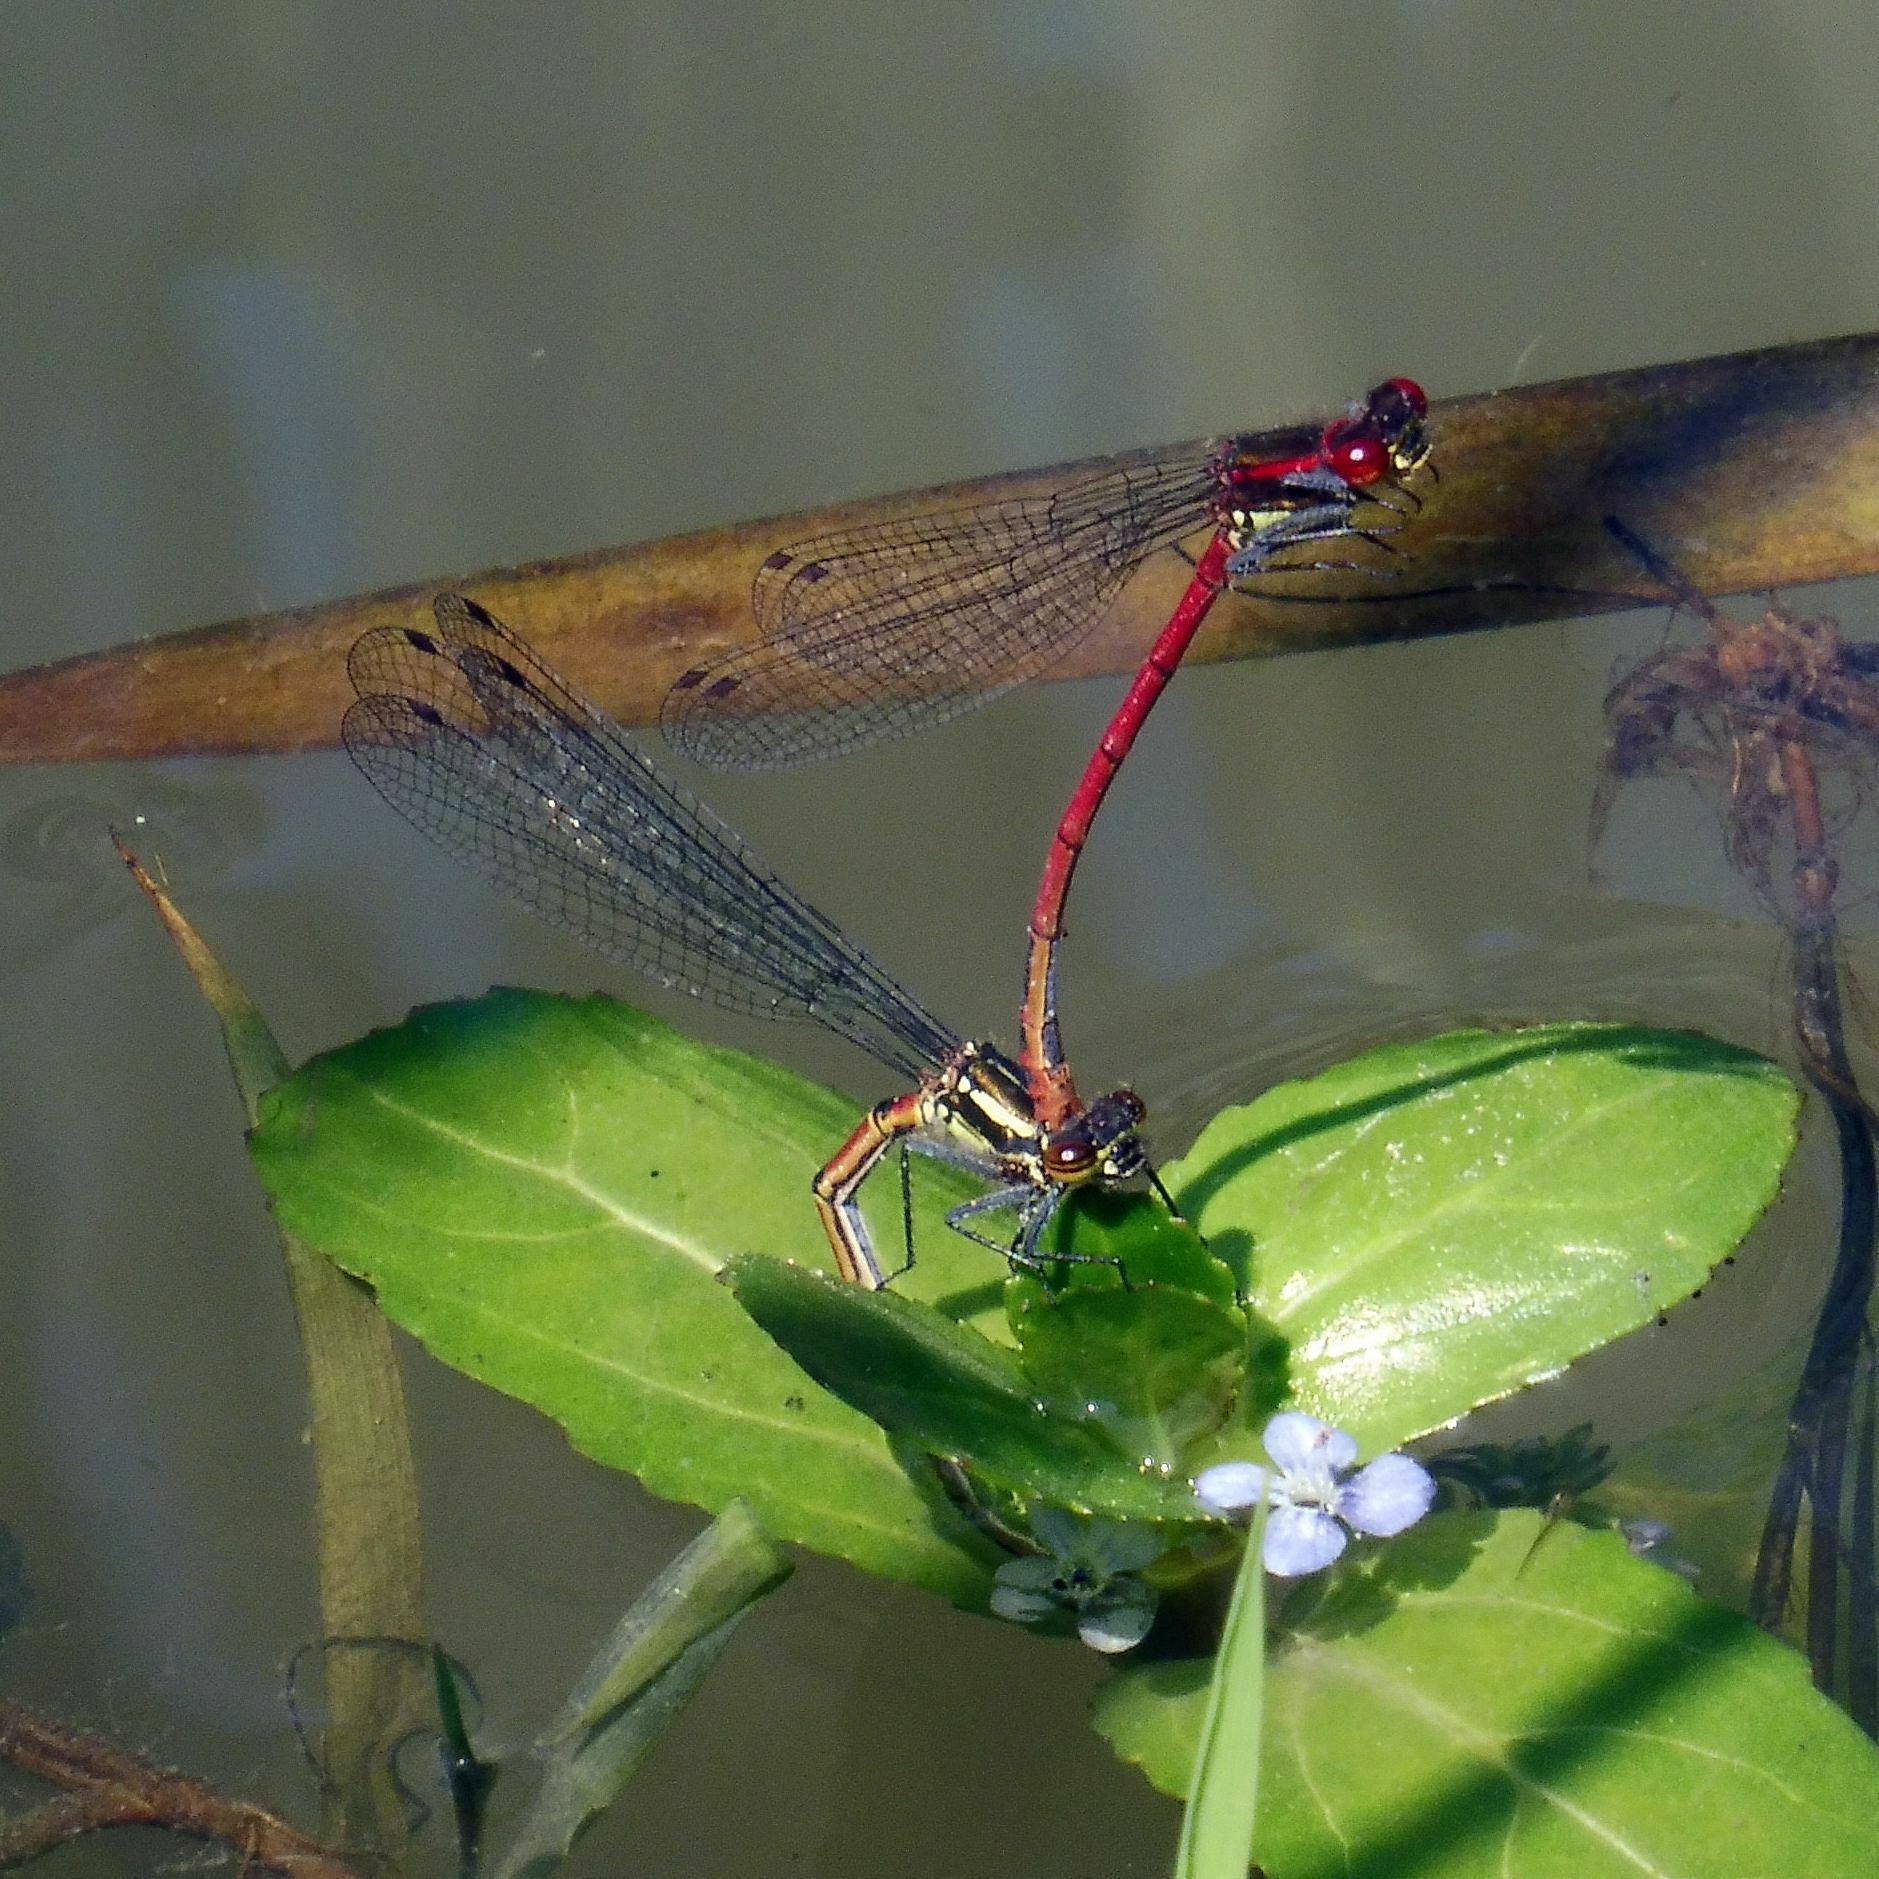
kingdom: Animalia
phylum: Arthropoda
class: Insecta
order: Odonata
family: Coenagrionidae
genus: Pyrrhosoma
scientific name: Pyrrhosoma nymphula
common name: Large red damsel
